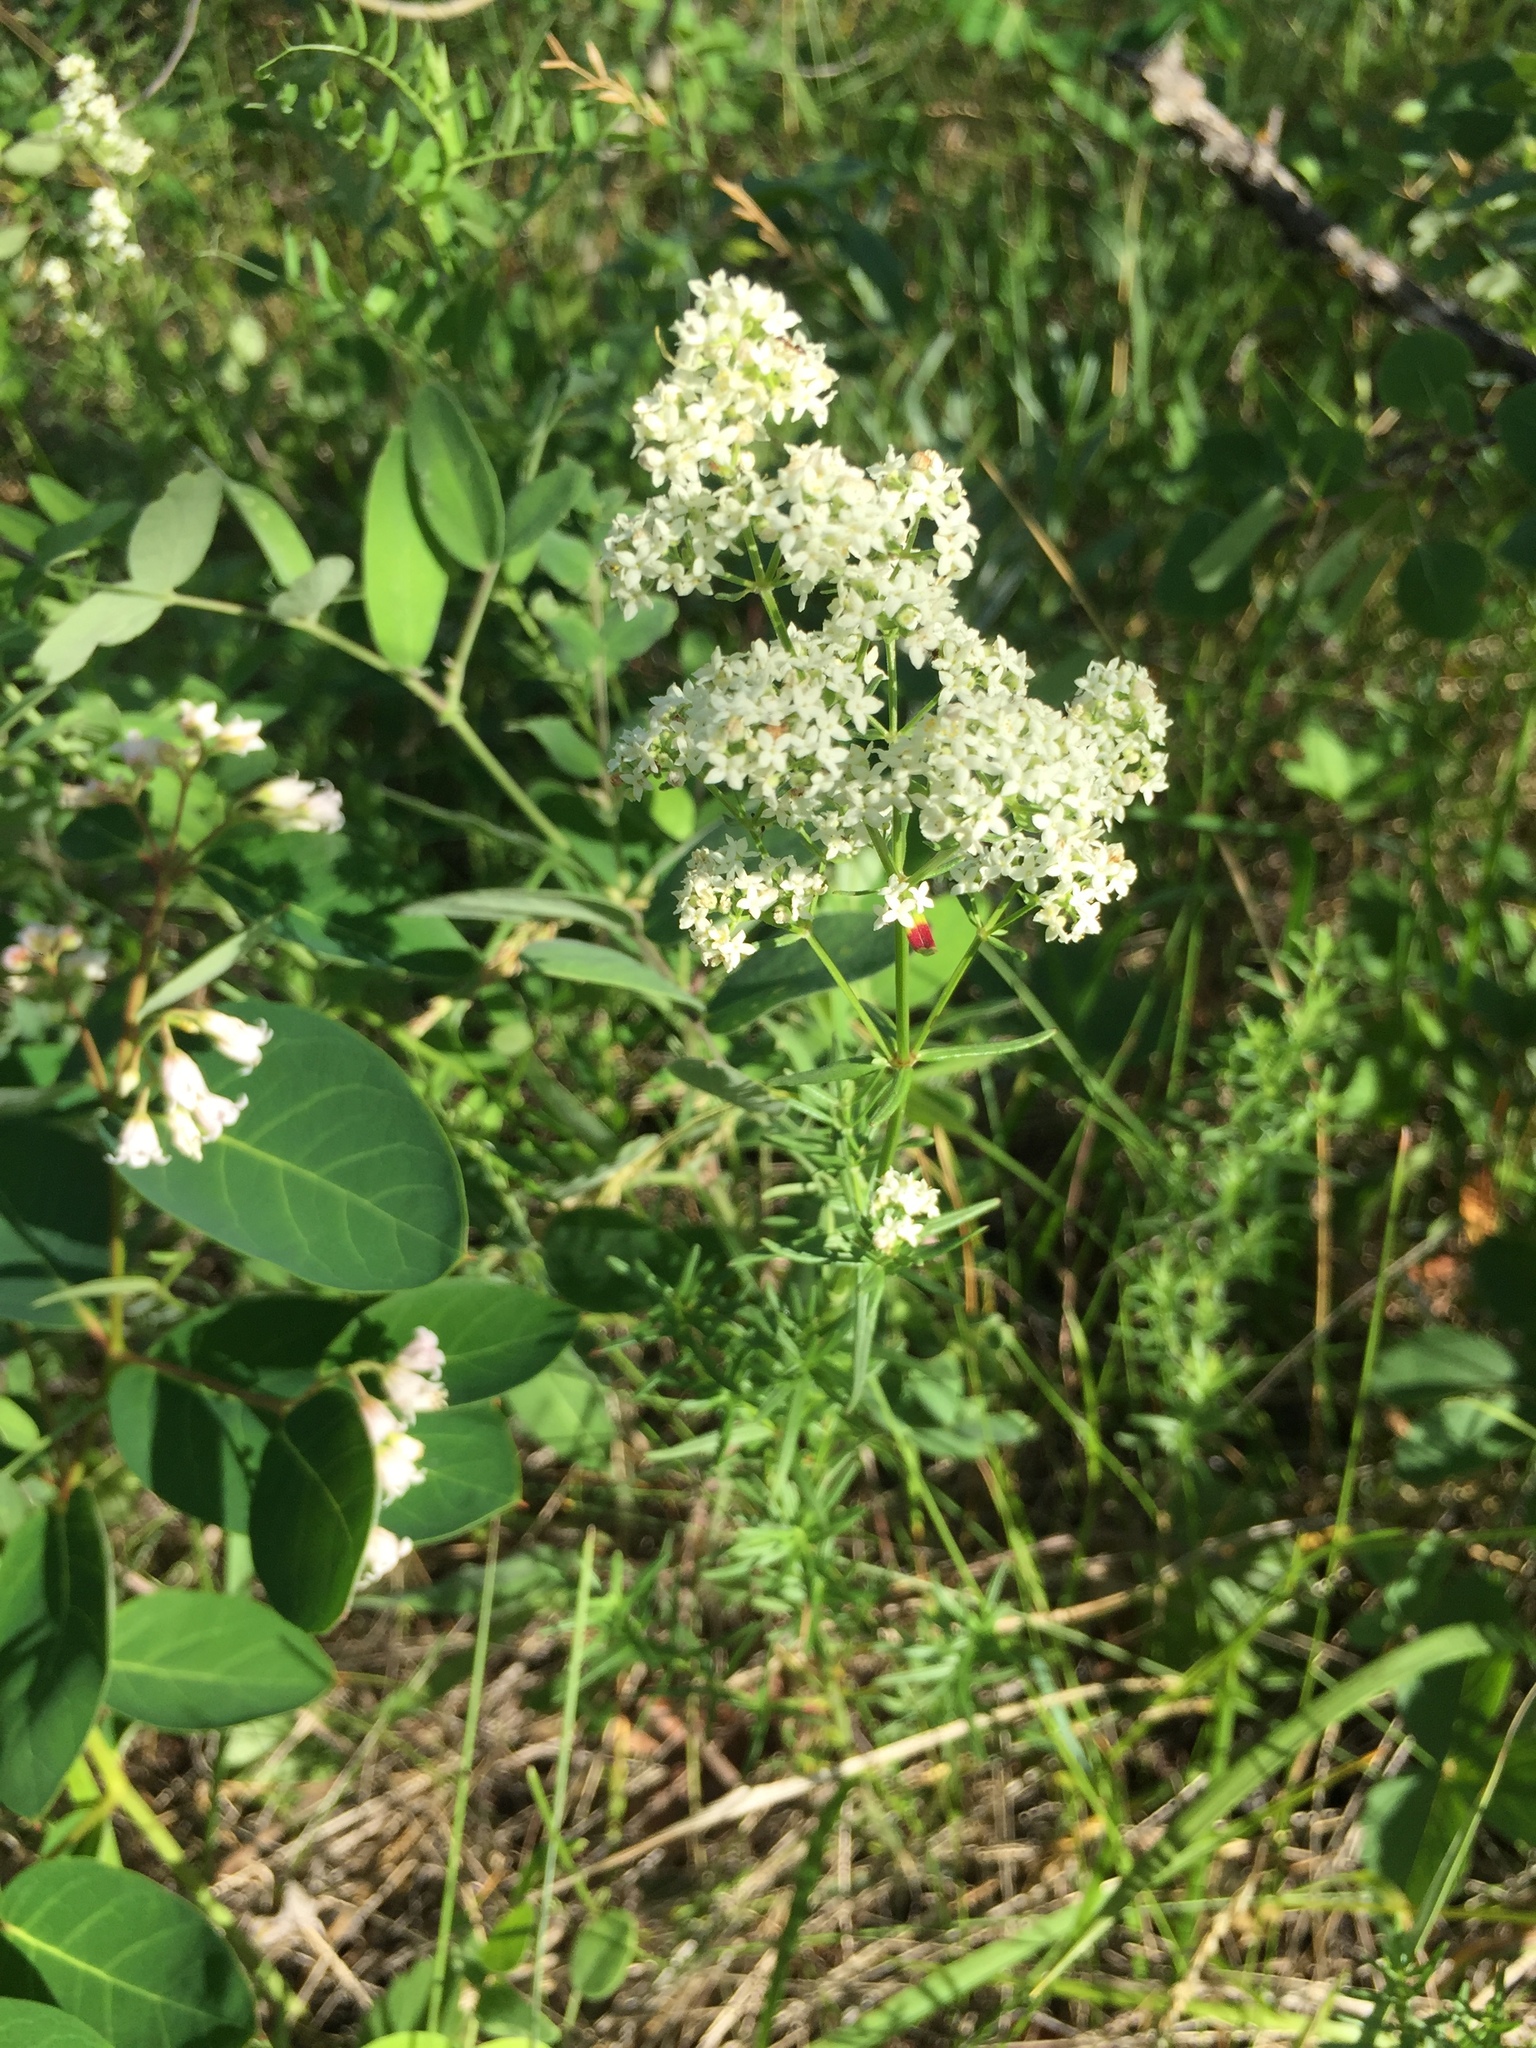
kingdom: Plantae
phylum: Tracheophyta
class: Magnoliopsida
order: Gentianales
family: Rubiaceae
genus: Galium
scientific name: Galium boreale
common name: Northern bedstraw
